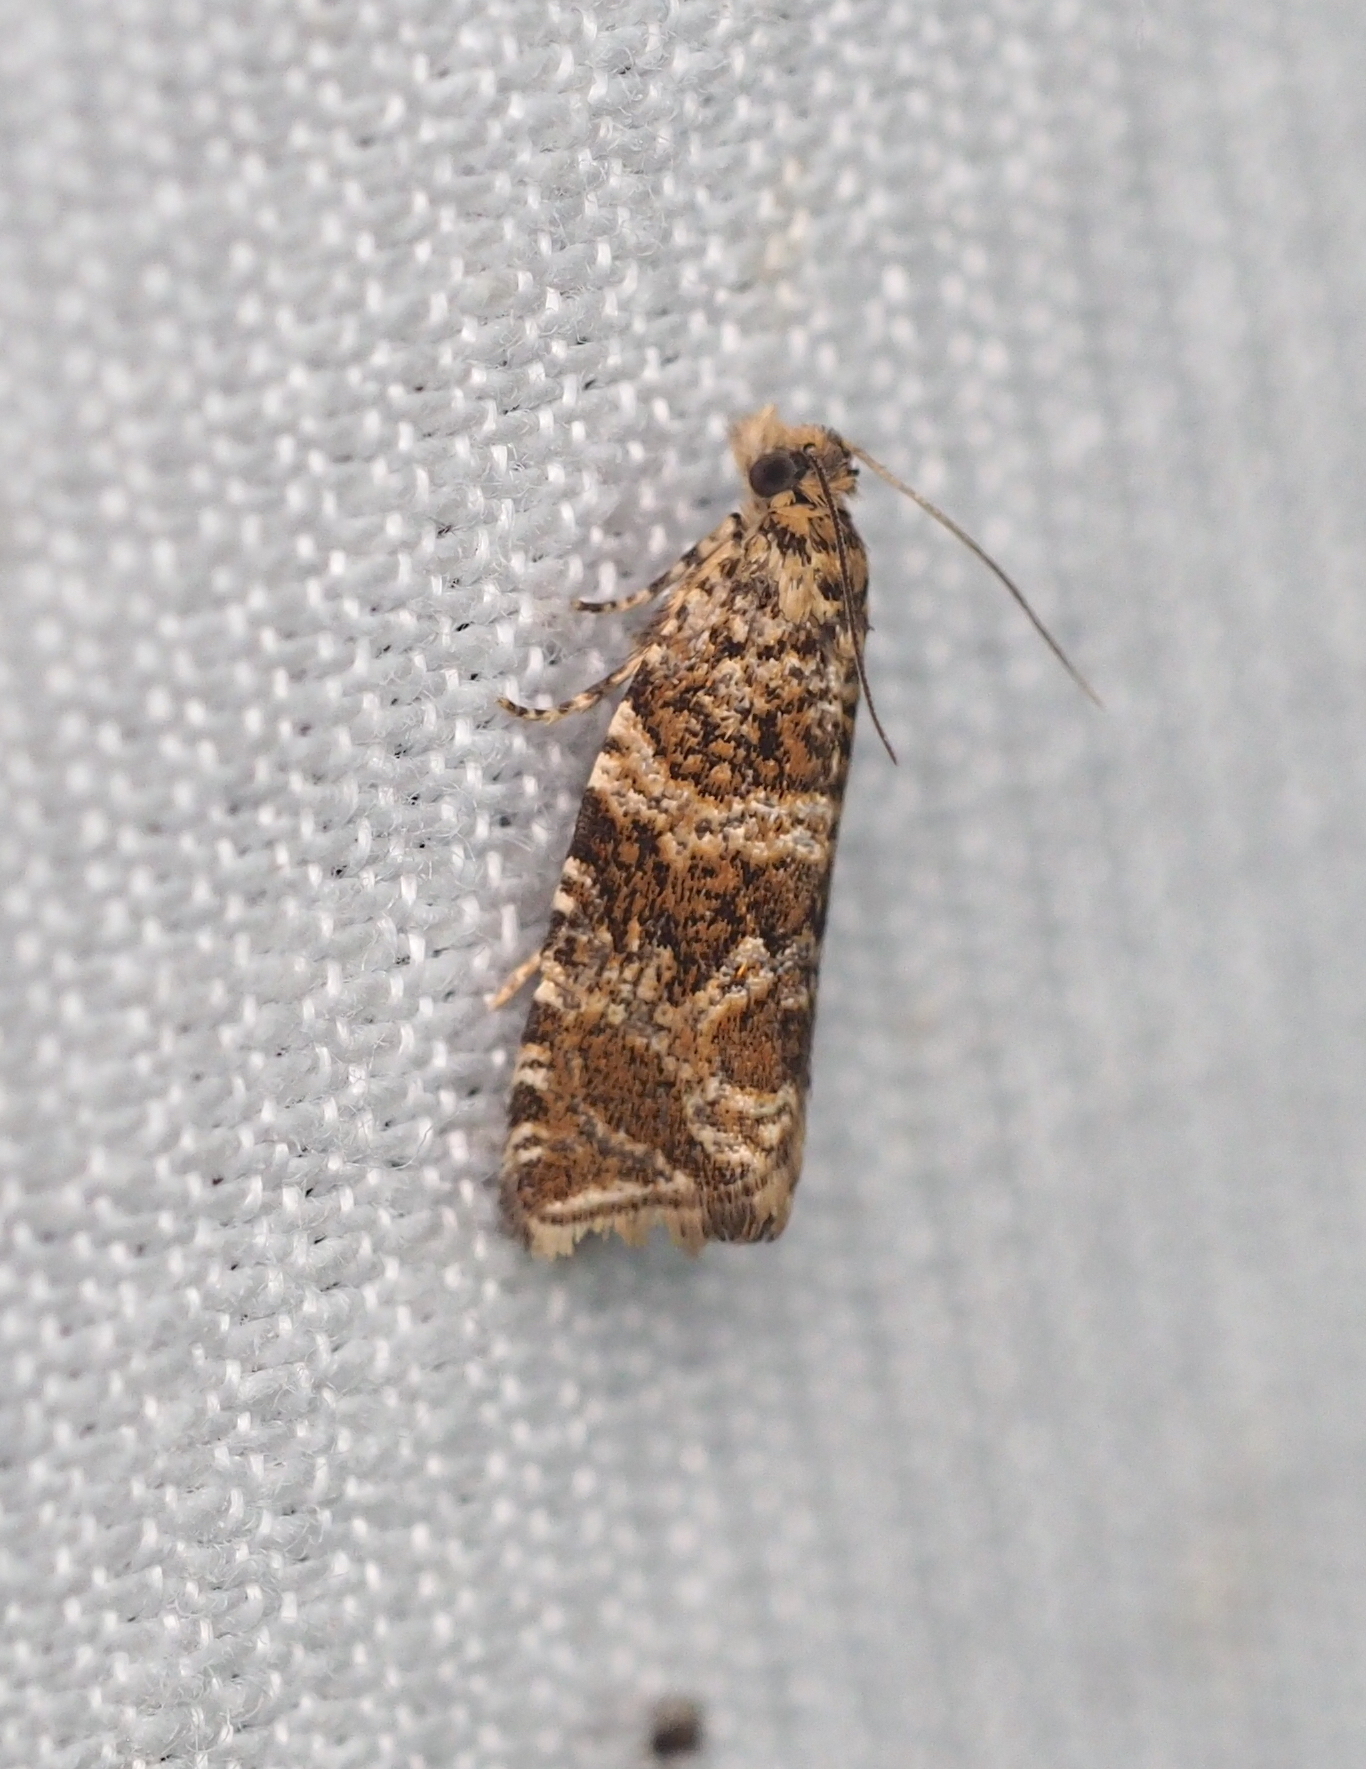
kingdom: Animalia
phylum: Arthropoda
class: Insecta
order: Lepidoptera
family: Tortricidae
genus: Syricoris
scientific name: Syricoris rivulana
